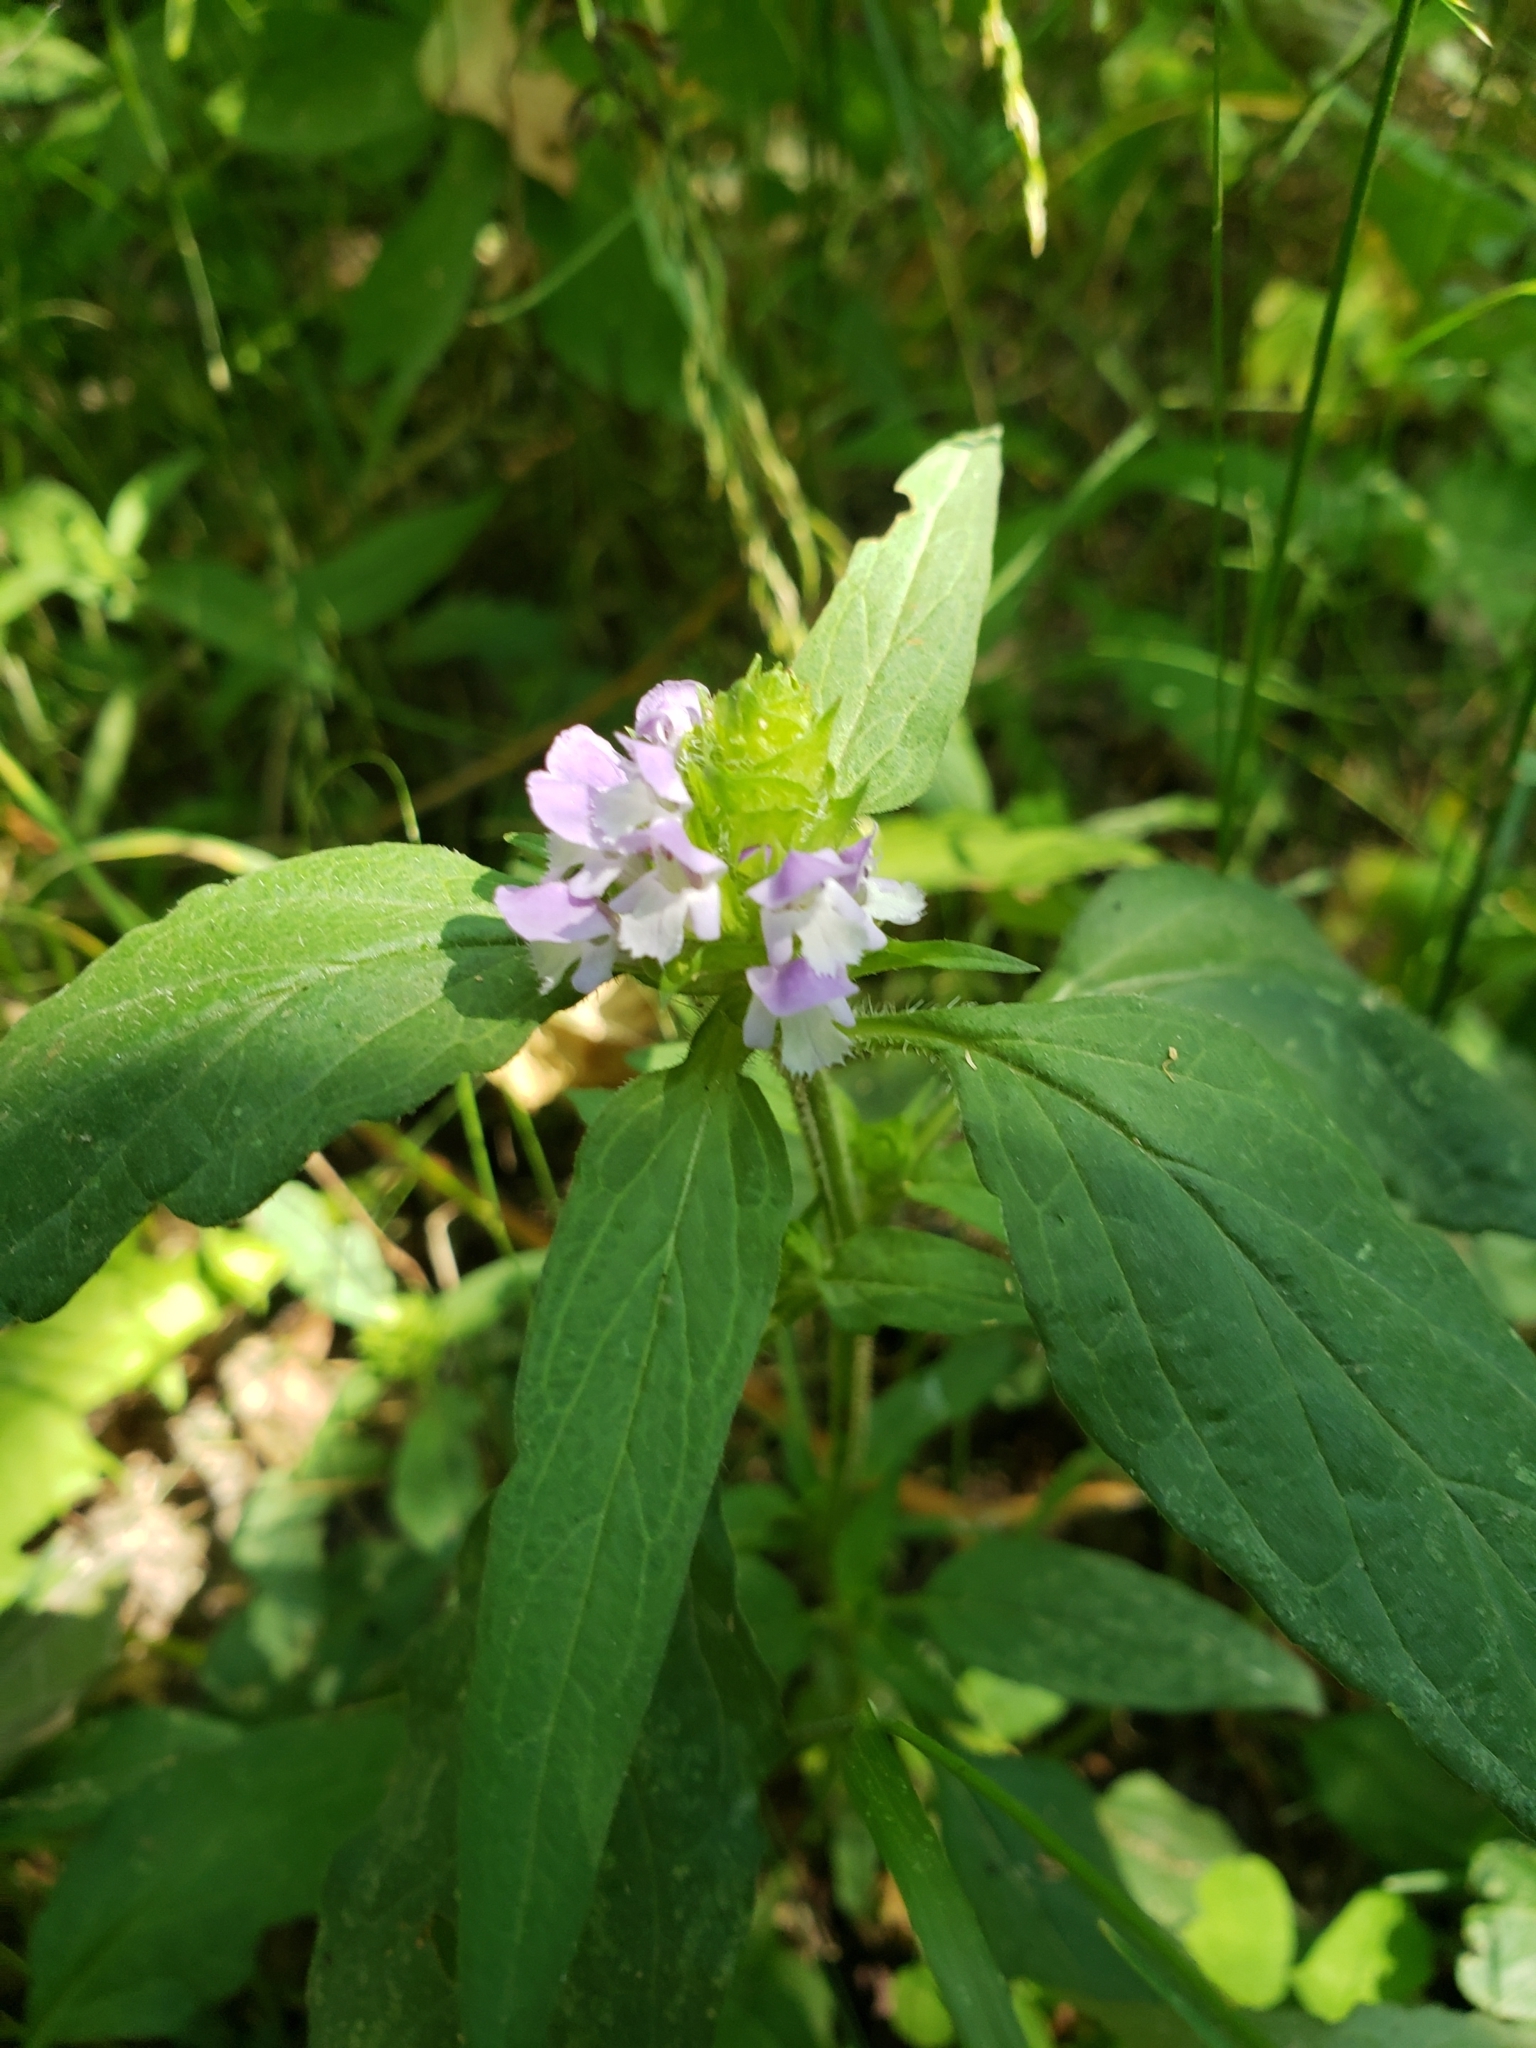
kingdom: Plantae
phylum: Tracheophyta
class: Magnoliopsida
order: Lamiales
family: Lamiaceae
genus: Prunella
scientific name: Prunella vulgaris
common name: Heal-all
